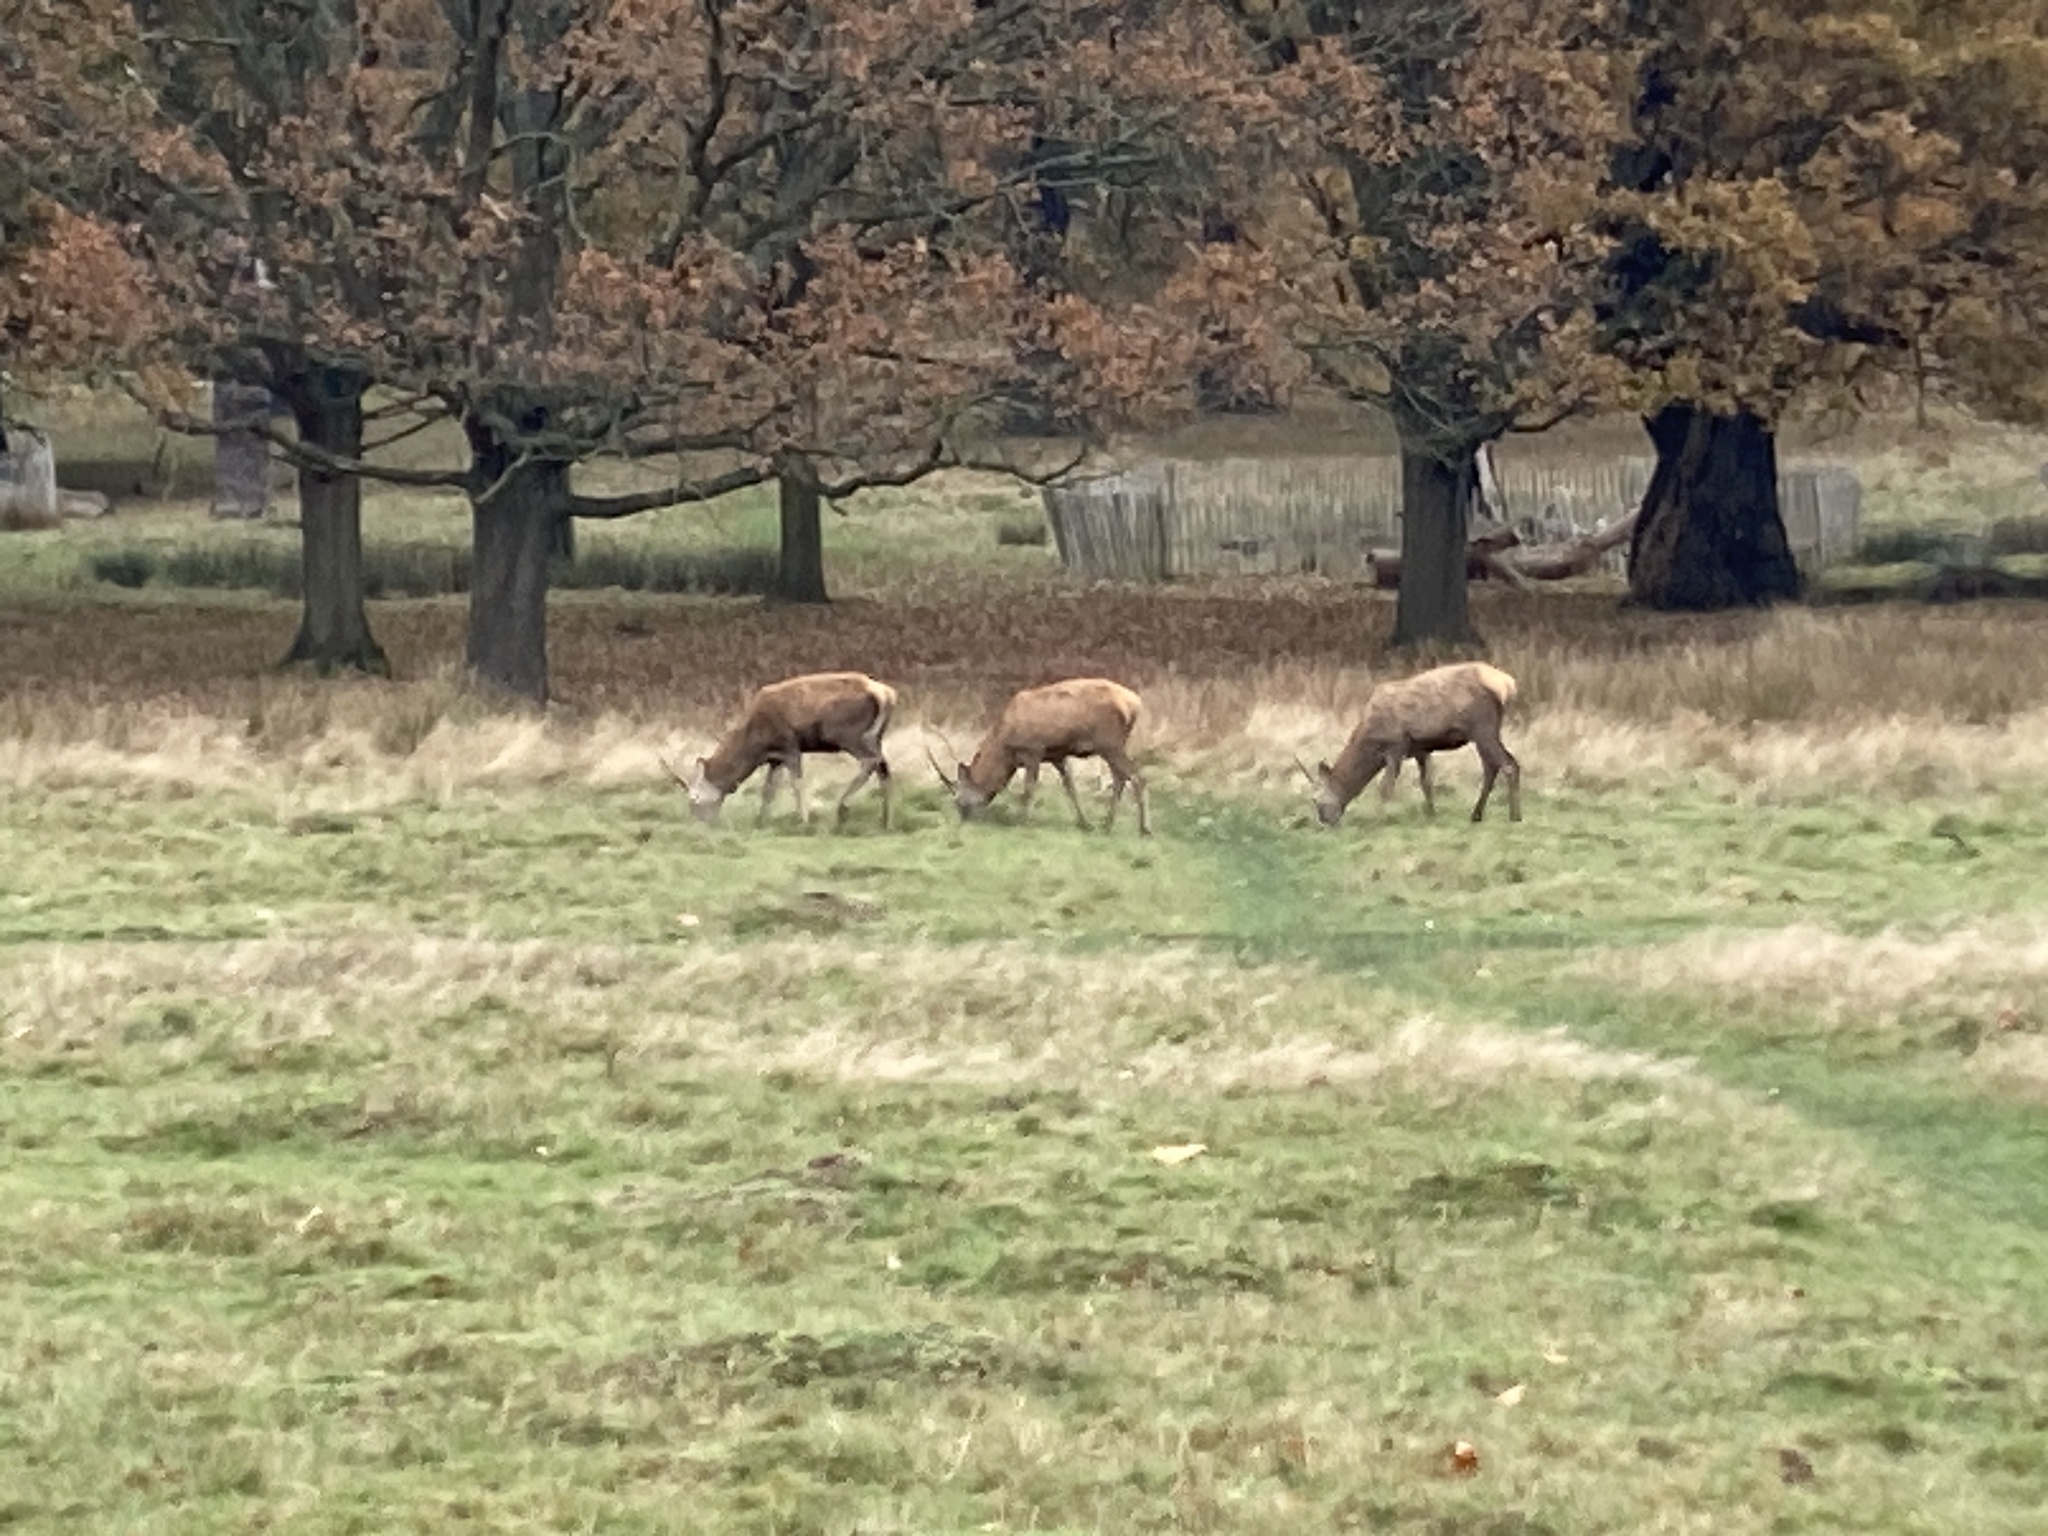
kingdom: Animalia
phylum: Chordata
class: Mammalia
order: Artiodactyla
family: Cervidae
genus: Cervus
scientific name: Cervus elaphus
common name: Red deer
